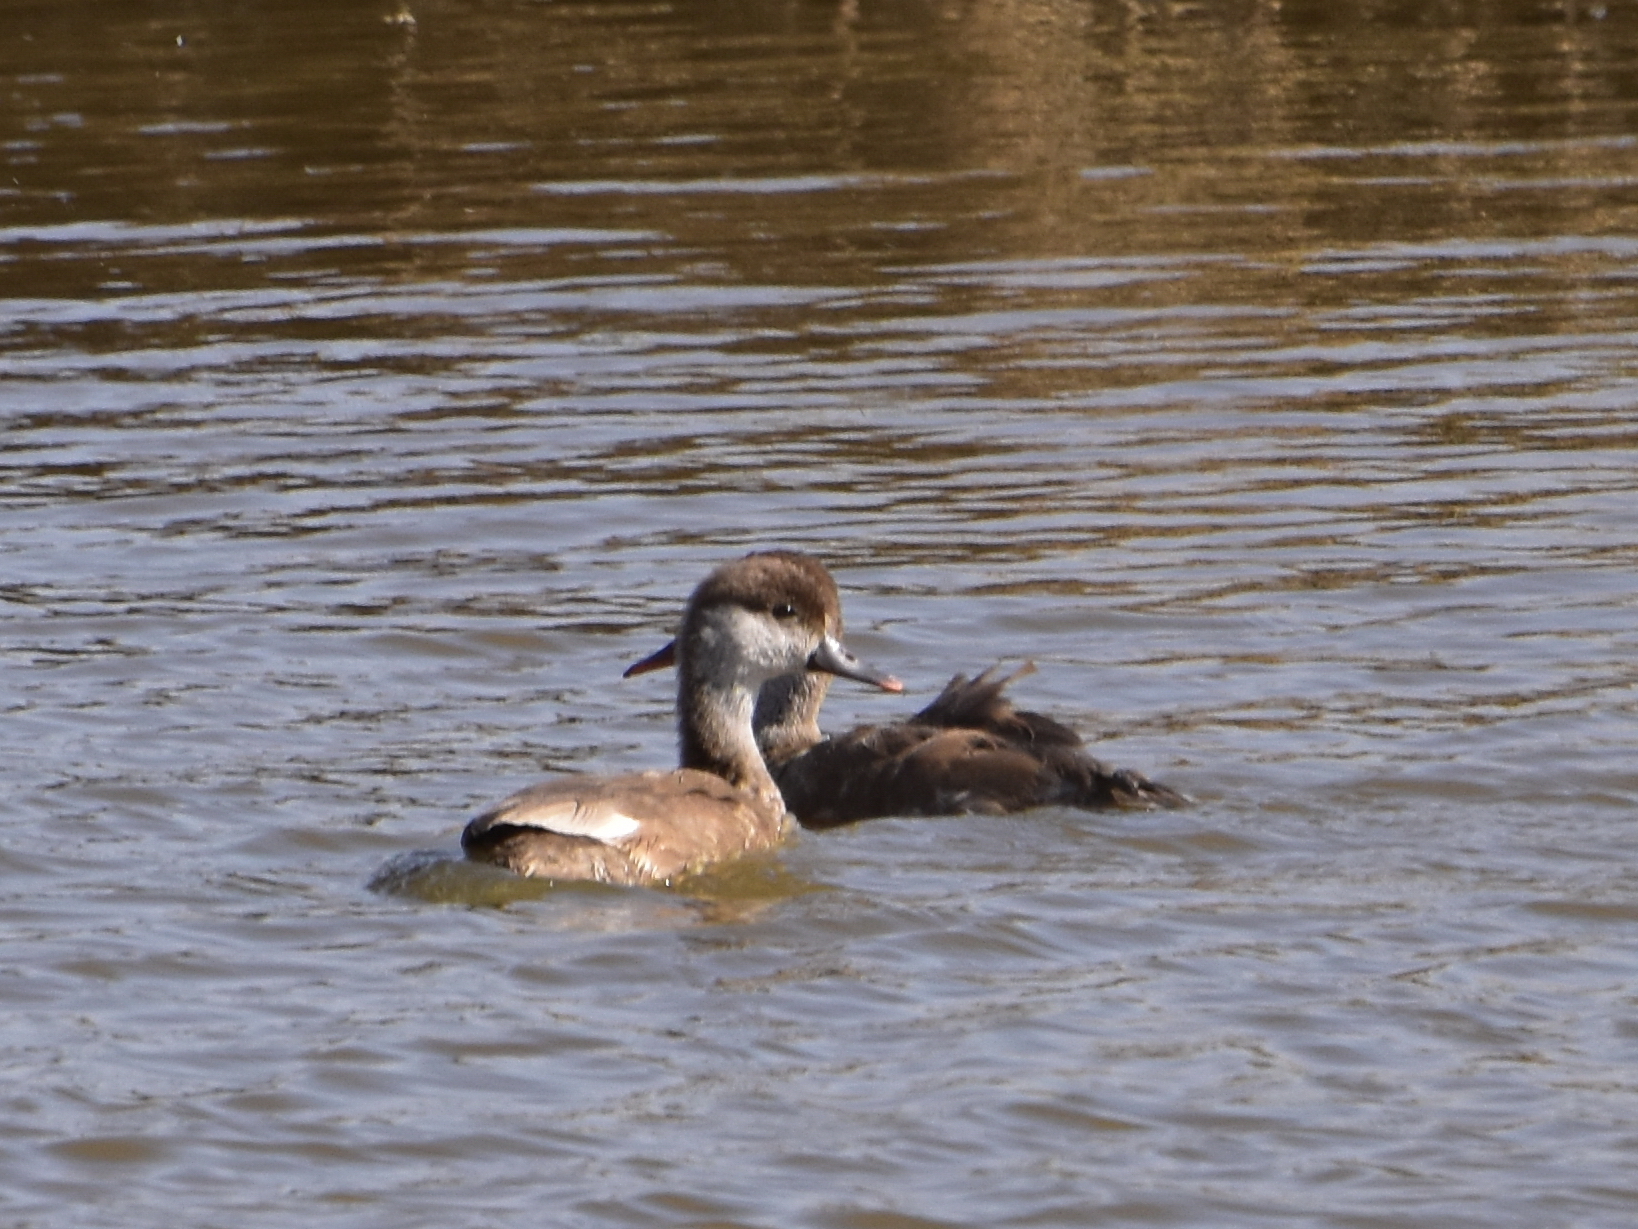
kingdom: Animalia
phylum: Chordata
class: Aves
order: Anseriformes
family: Anatidae
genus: Netta
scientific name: Netta rufina
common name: Red-crested pochard
